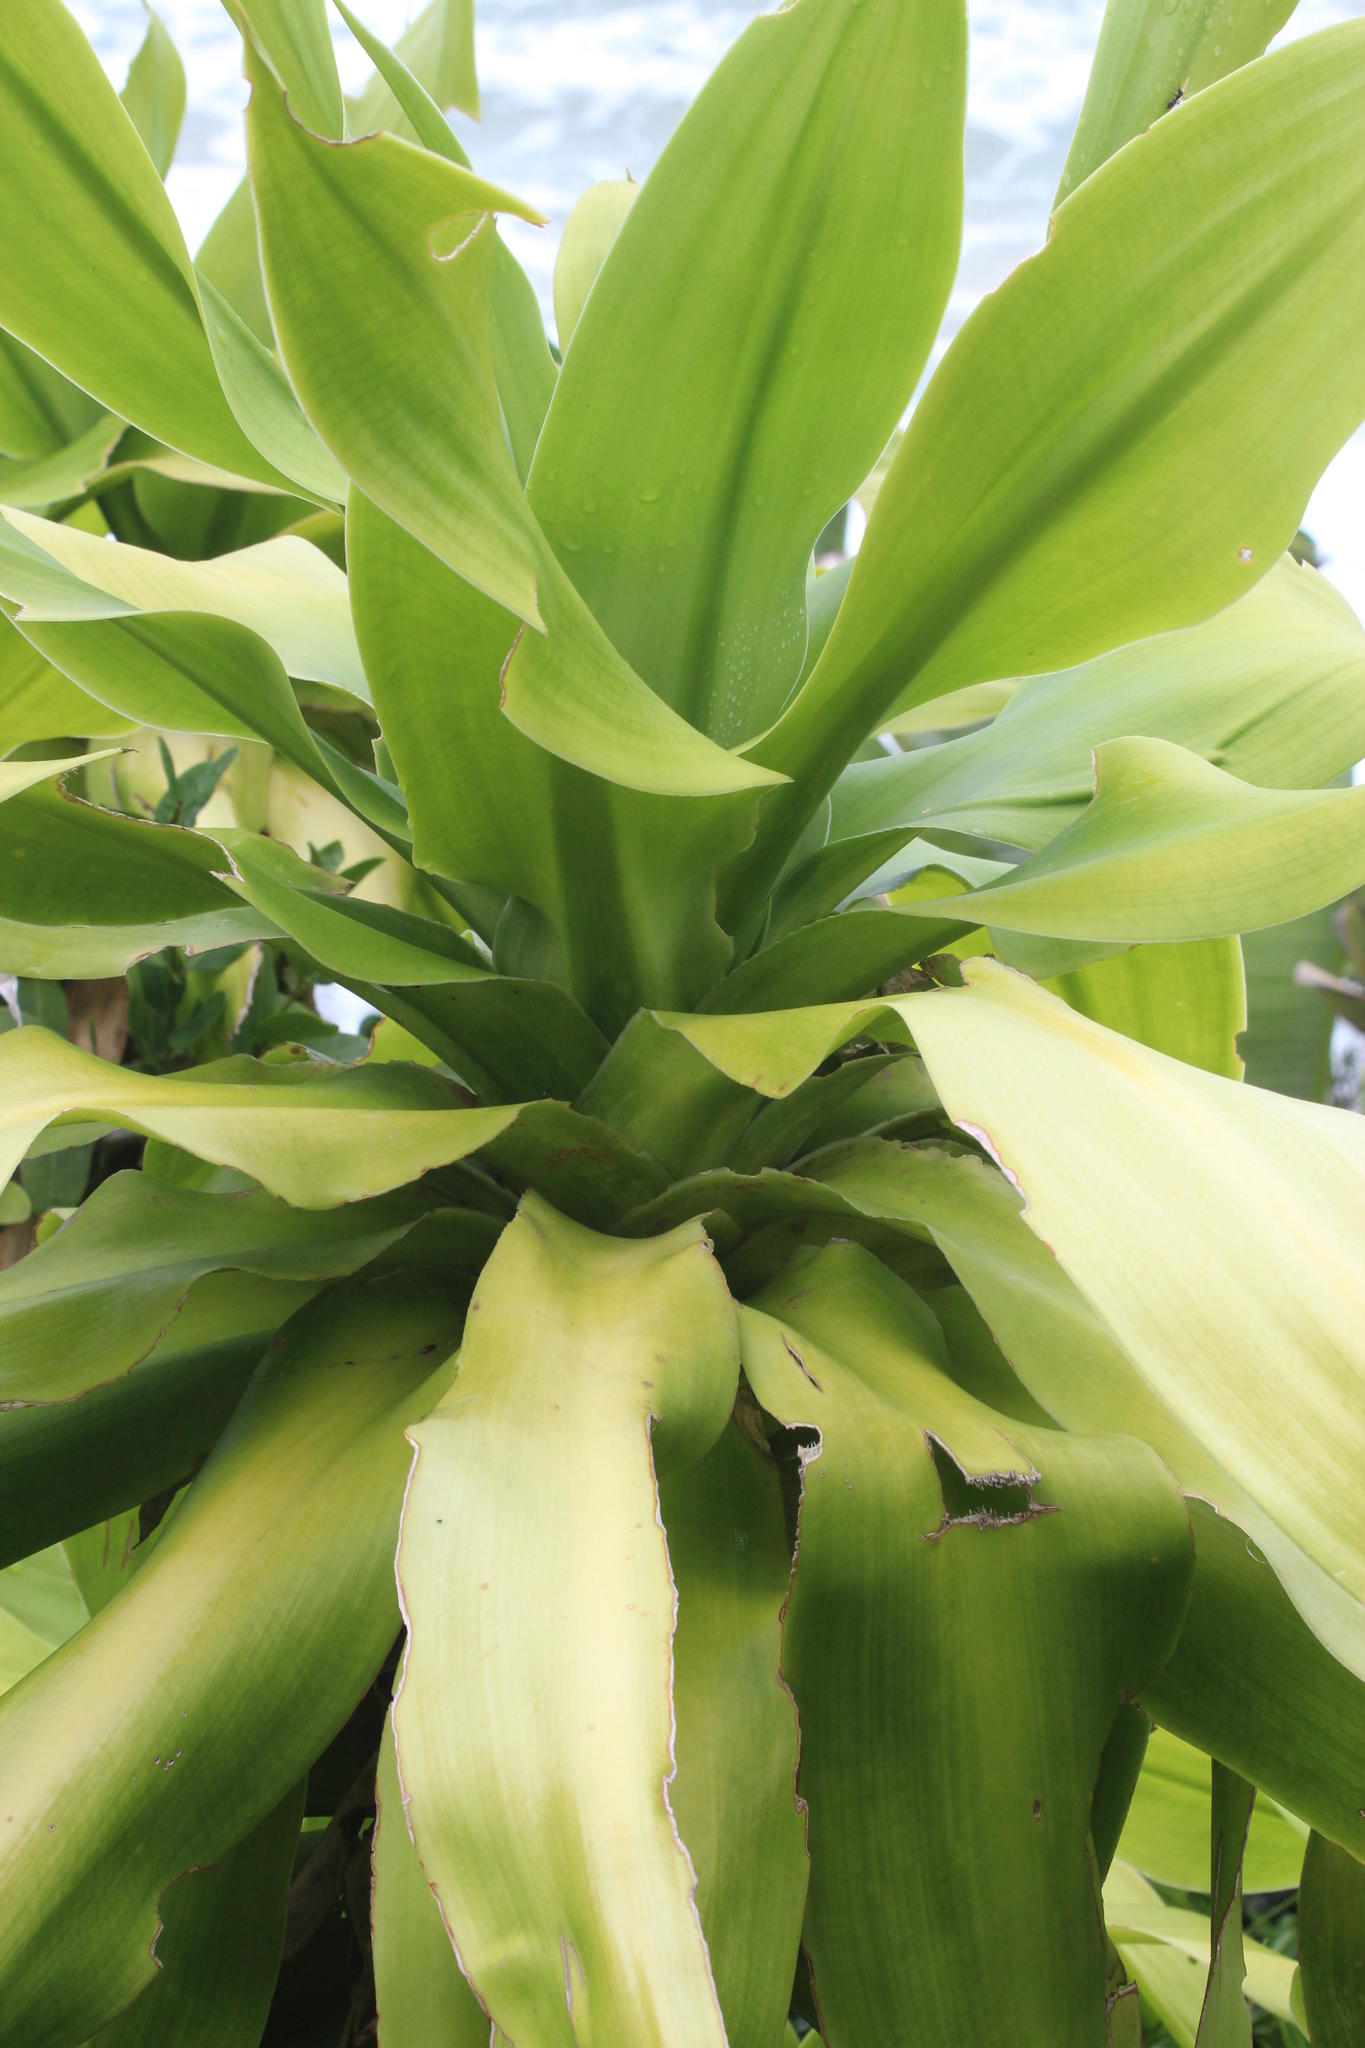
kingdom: Plantae
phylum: Tracheophyta
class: Liliopsida
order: Asparagales
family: Asparagaceae
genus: Dracaena
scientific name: Dracaena aletriformis
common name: Large-leaved dragon tree
